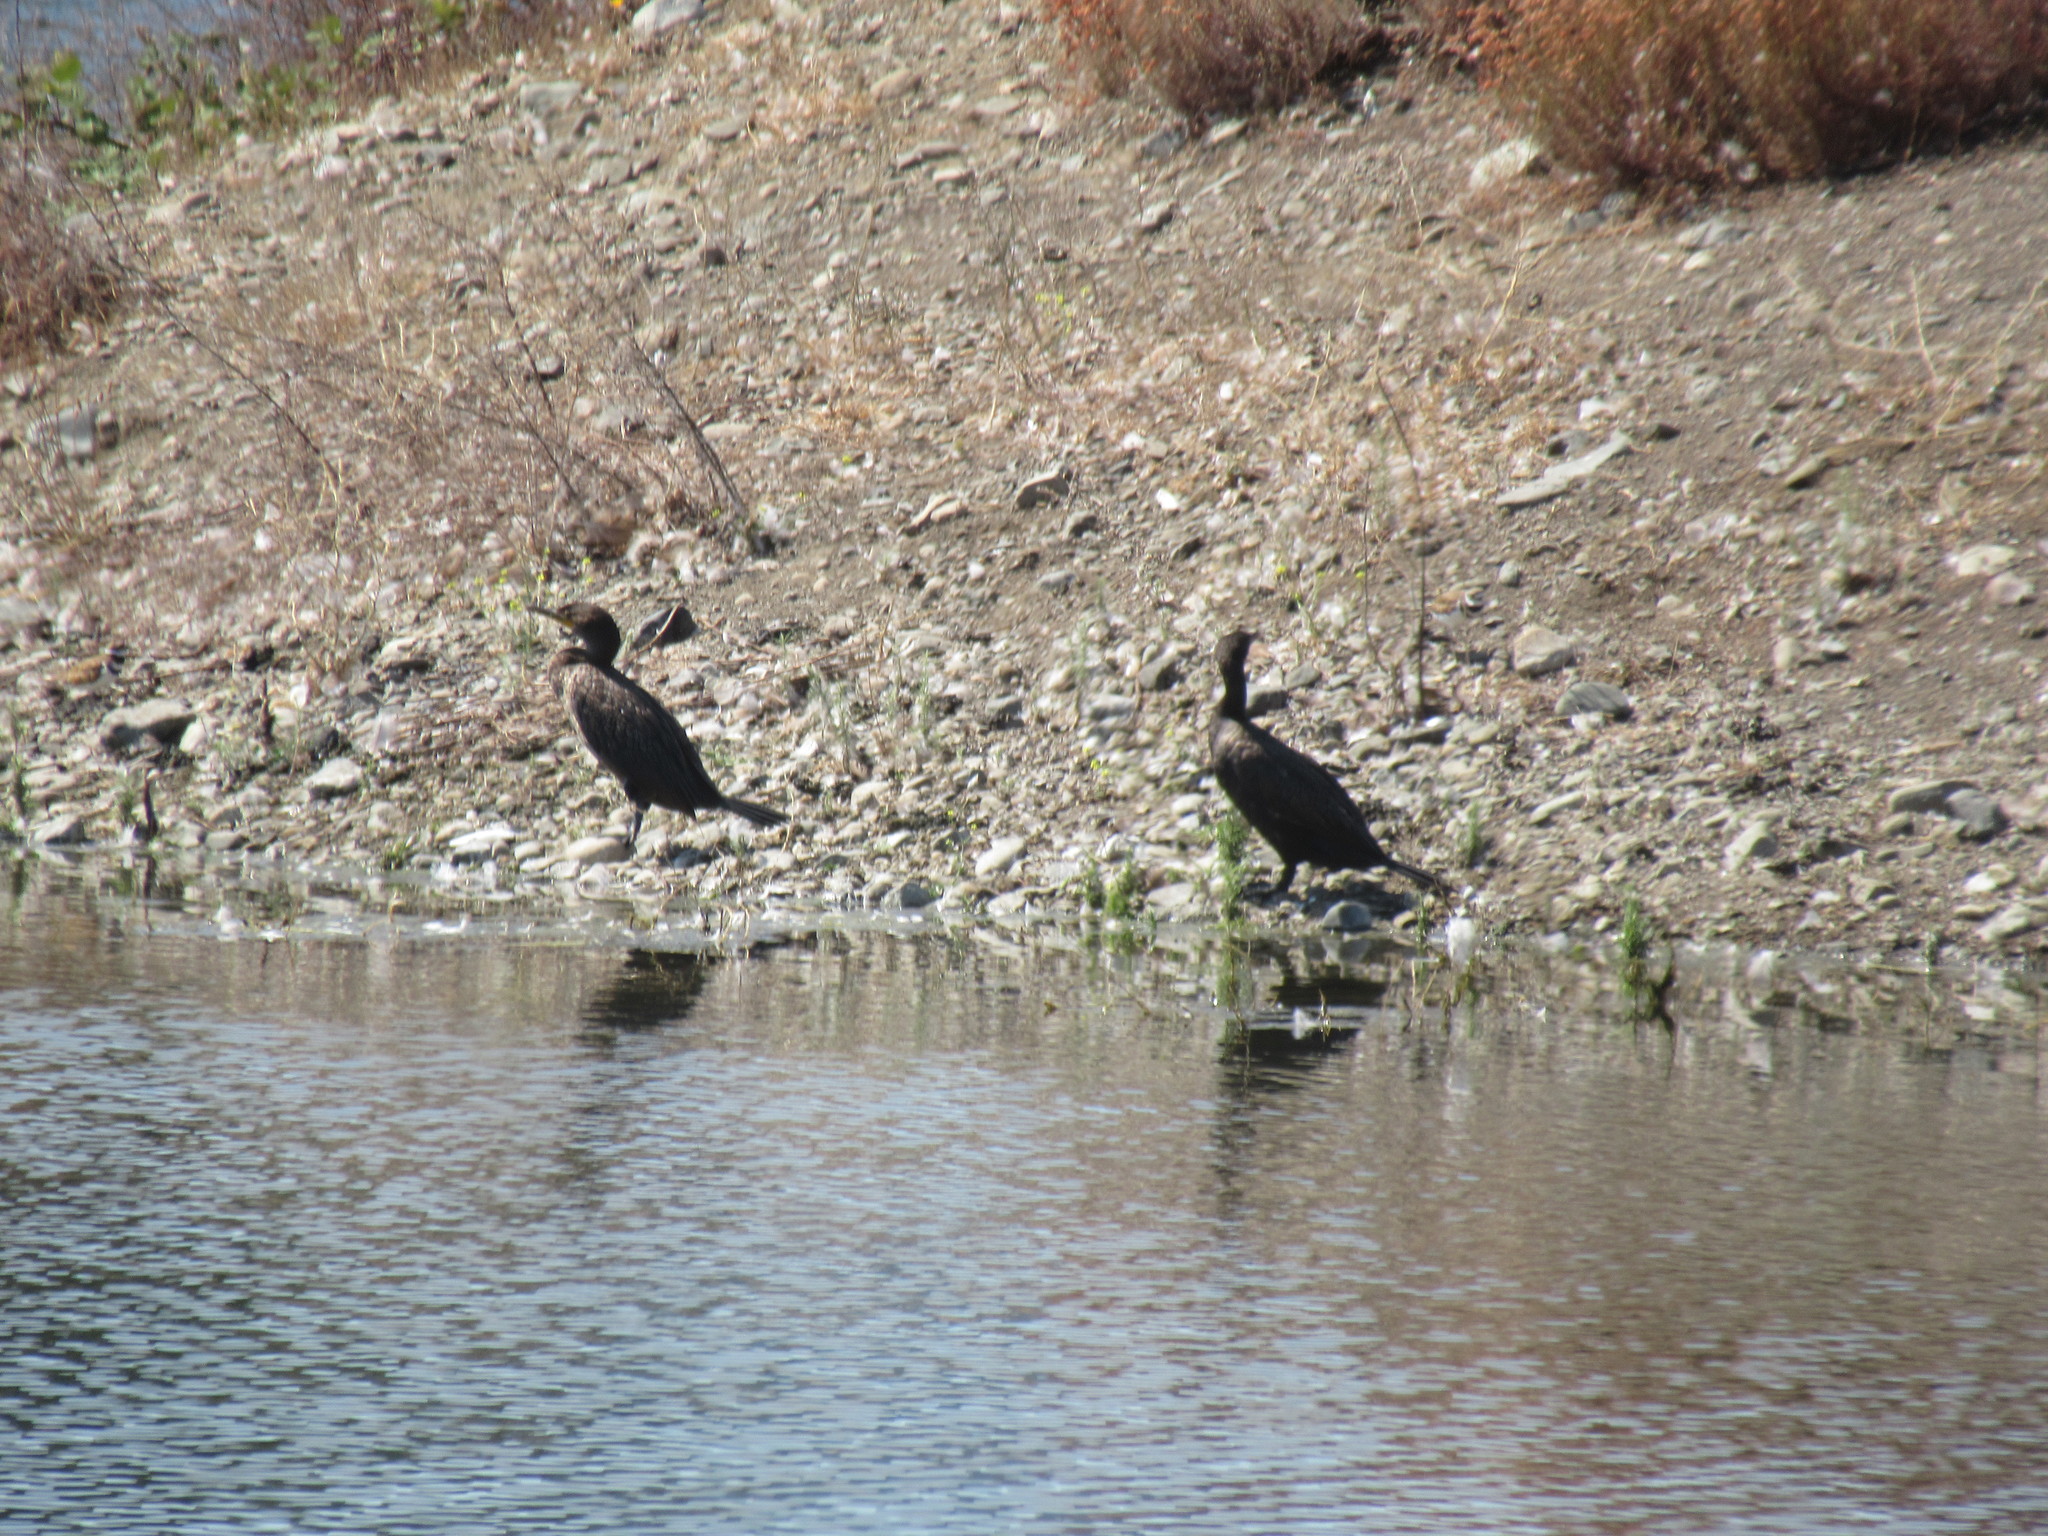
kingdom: Animalia
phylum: Chordata
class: Aves
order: Suliformes
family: Phalacrocoracidae
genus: Phalacrocorax
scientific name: Phalacrocorax auritus
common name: Double-crested cormorant
